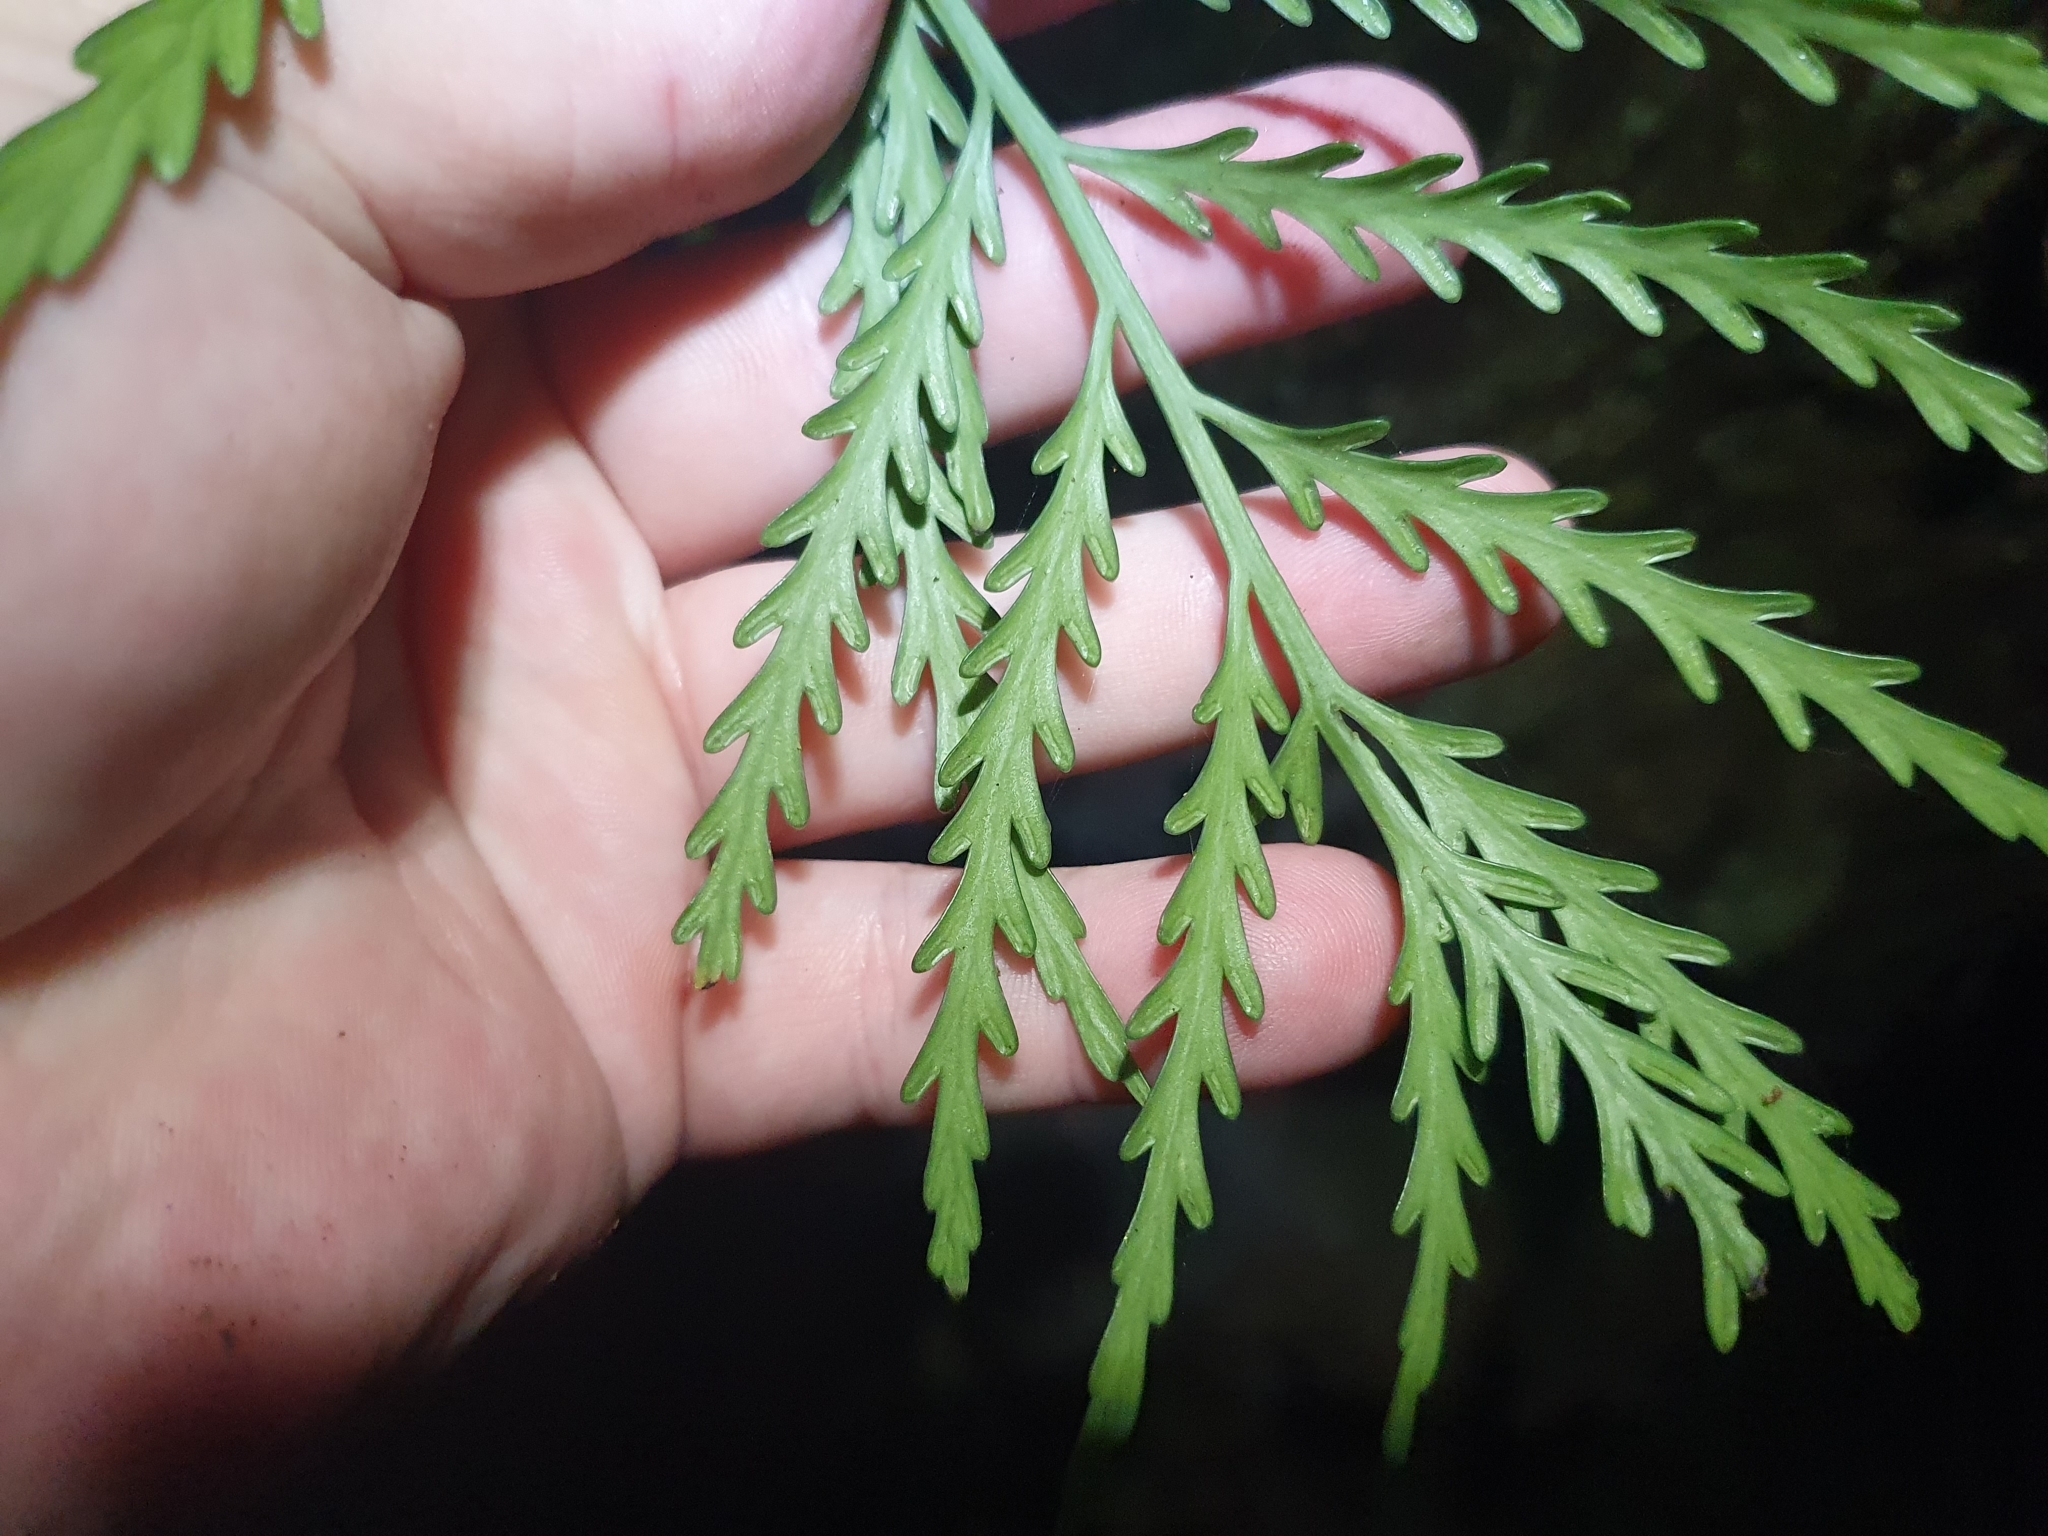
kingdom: Plantae
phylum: Tracheophyta
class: Polypodiopsida
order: Polypodiales
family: Aspleniaceae
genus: Asplenium
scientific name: Asplenium flaccidum
